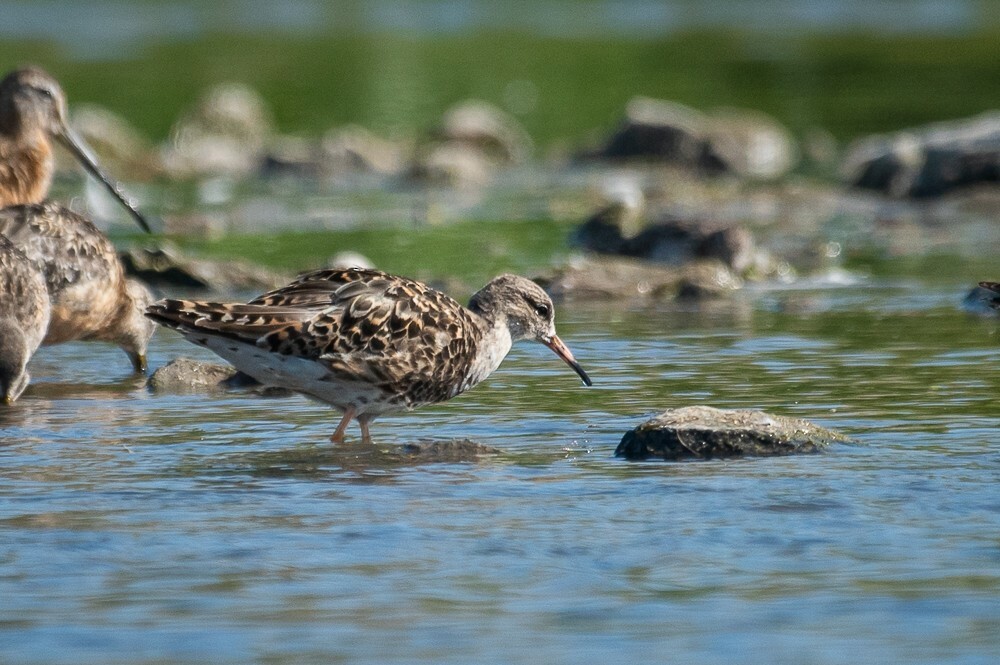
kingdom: Animalia
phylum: Chordata
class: Aves
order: Charadriiformes
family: Scolopacidae
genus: Calidris
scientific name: Calidris pugnax
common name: Ruff
